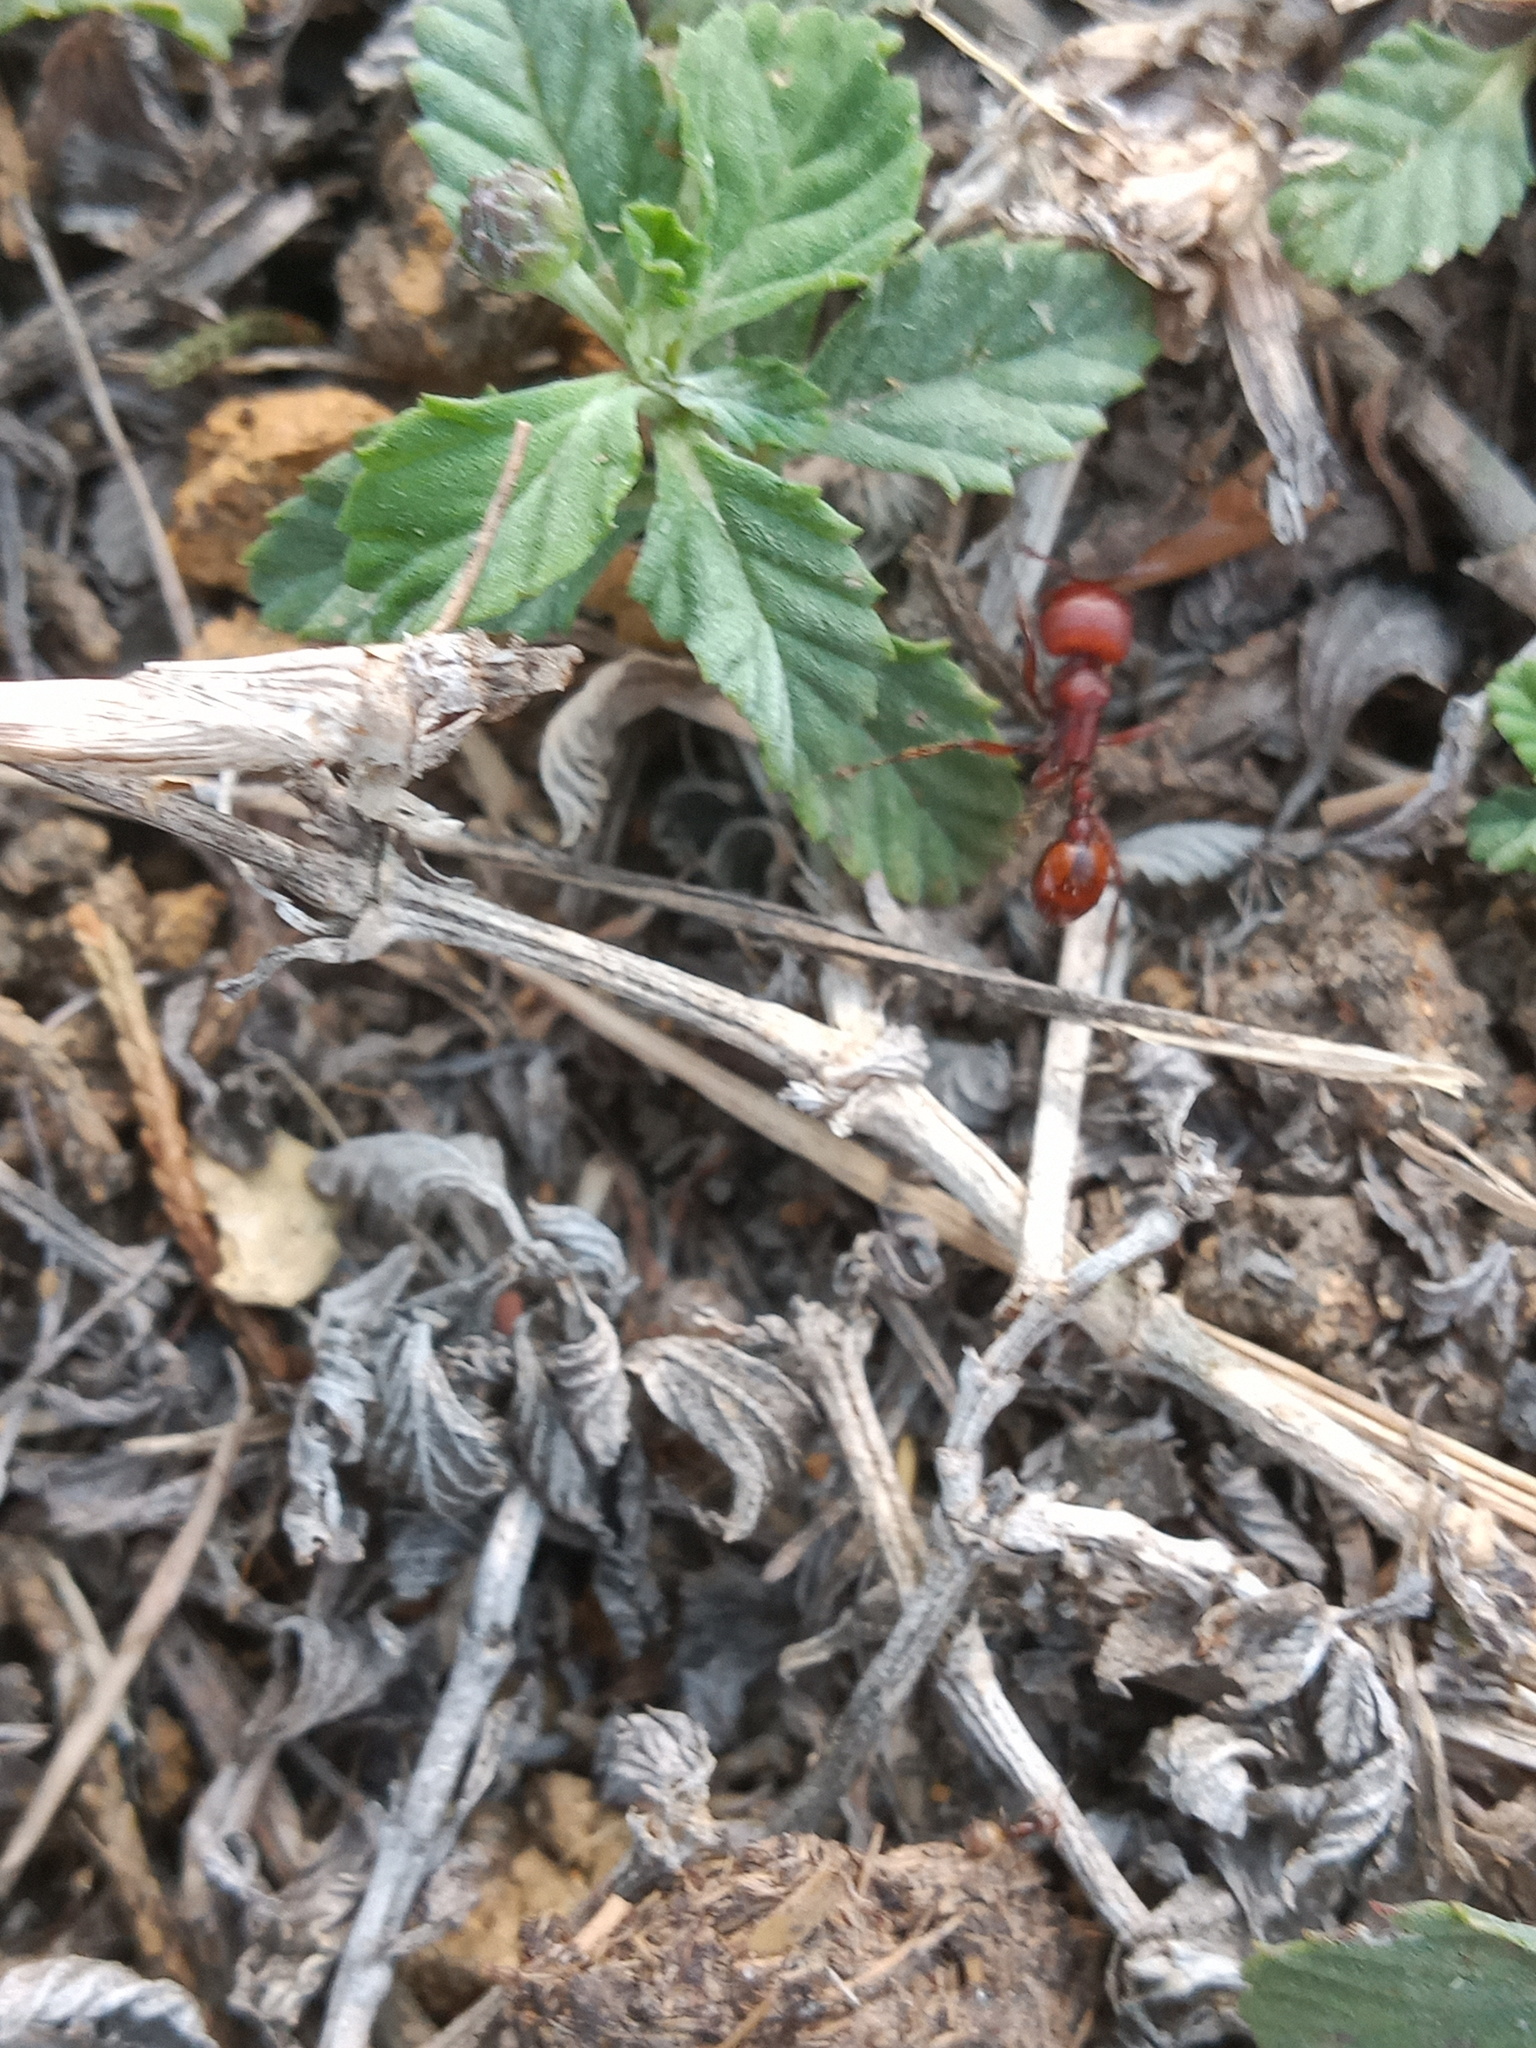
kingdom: Animalia
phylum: Arthropoda
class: Insecta
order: Hymenoptera
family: Formicidae
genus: Pogonomyrmex
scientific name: Pogonomyrmex barbatus
